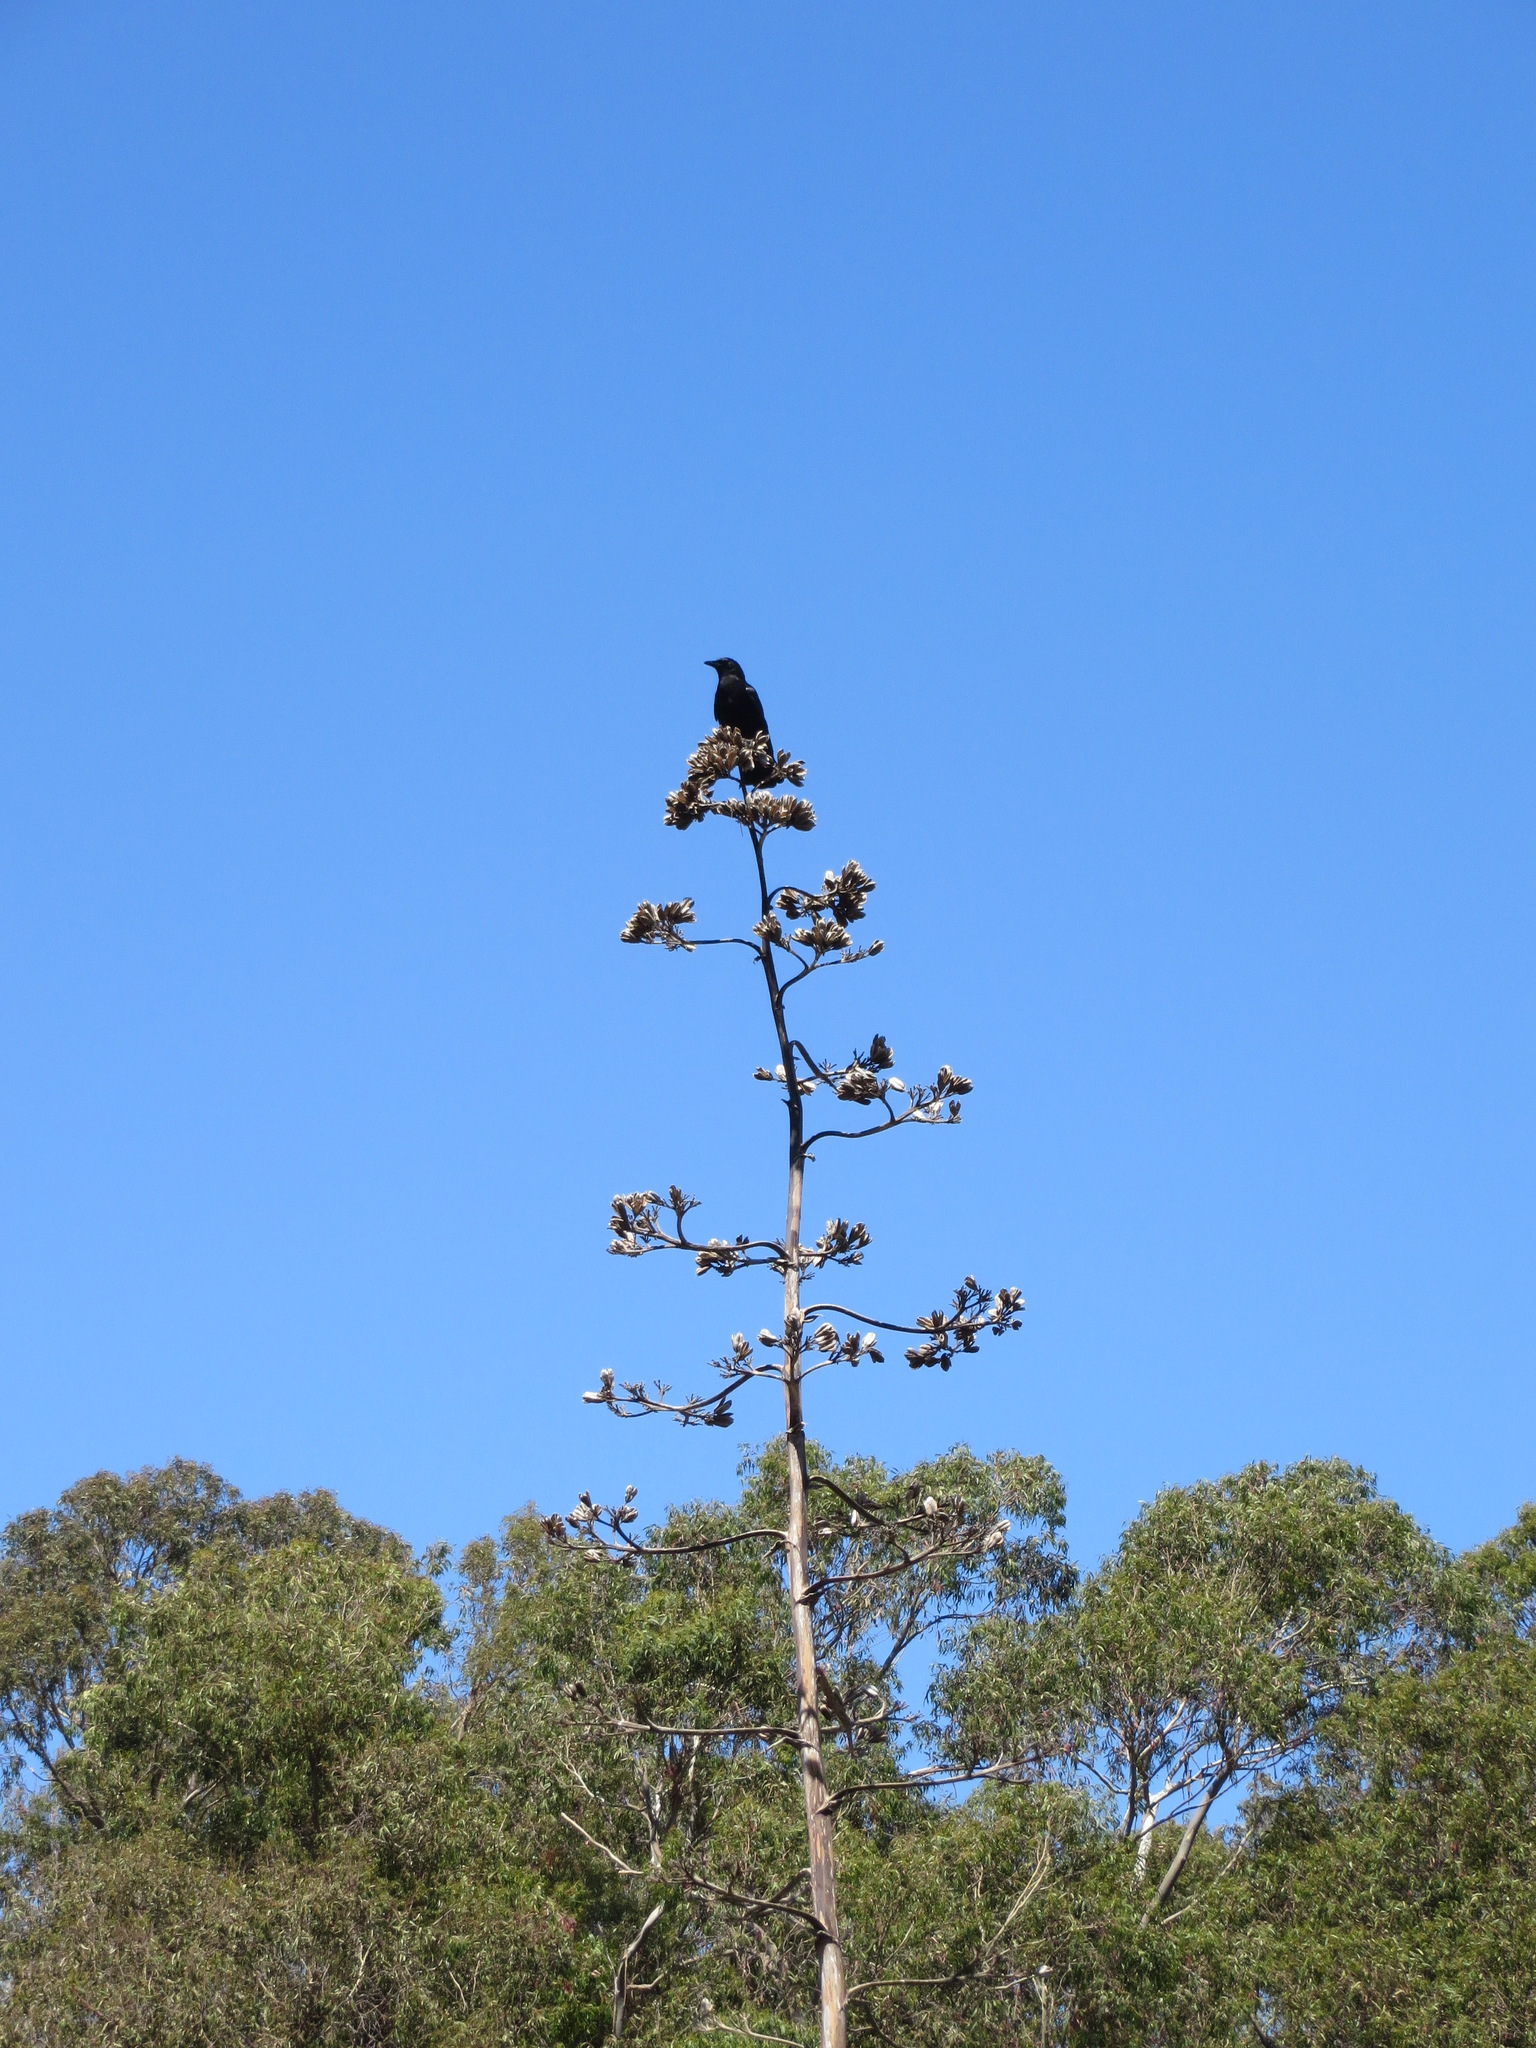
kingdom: Animalia
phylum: Chordata
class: Aves
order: Passeriformes
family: Corvidae
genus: Corvus
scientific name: Corvus brachyrhynchos
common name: American crow
